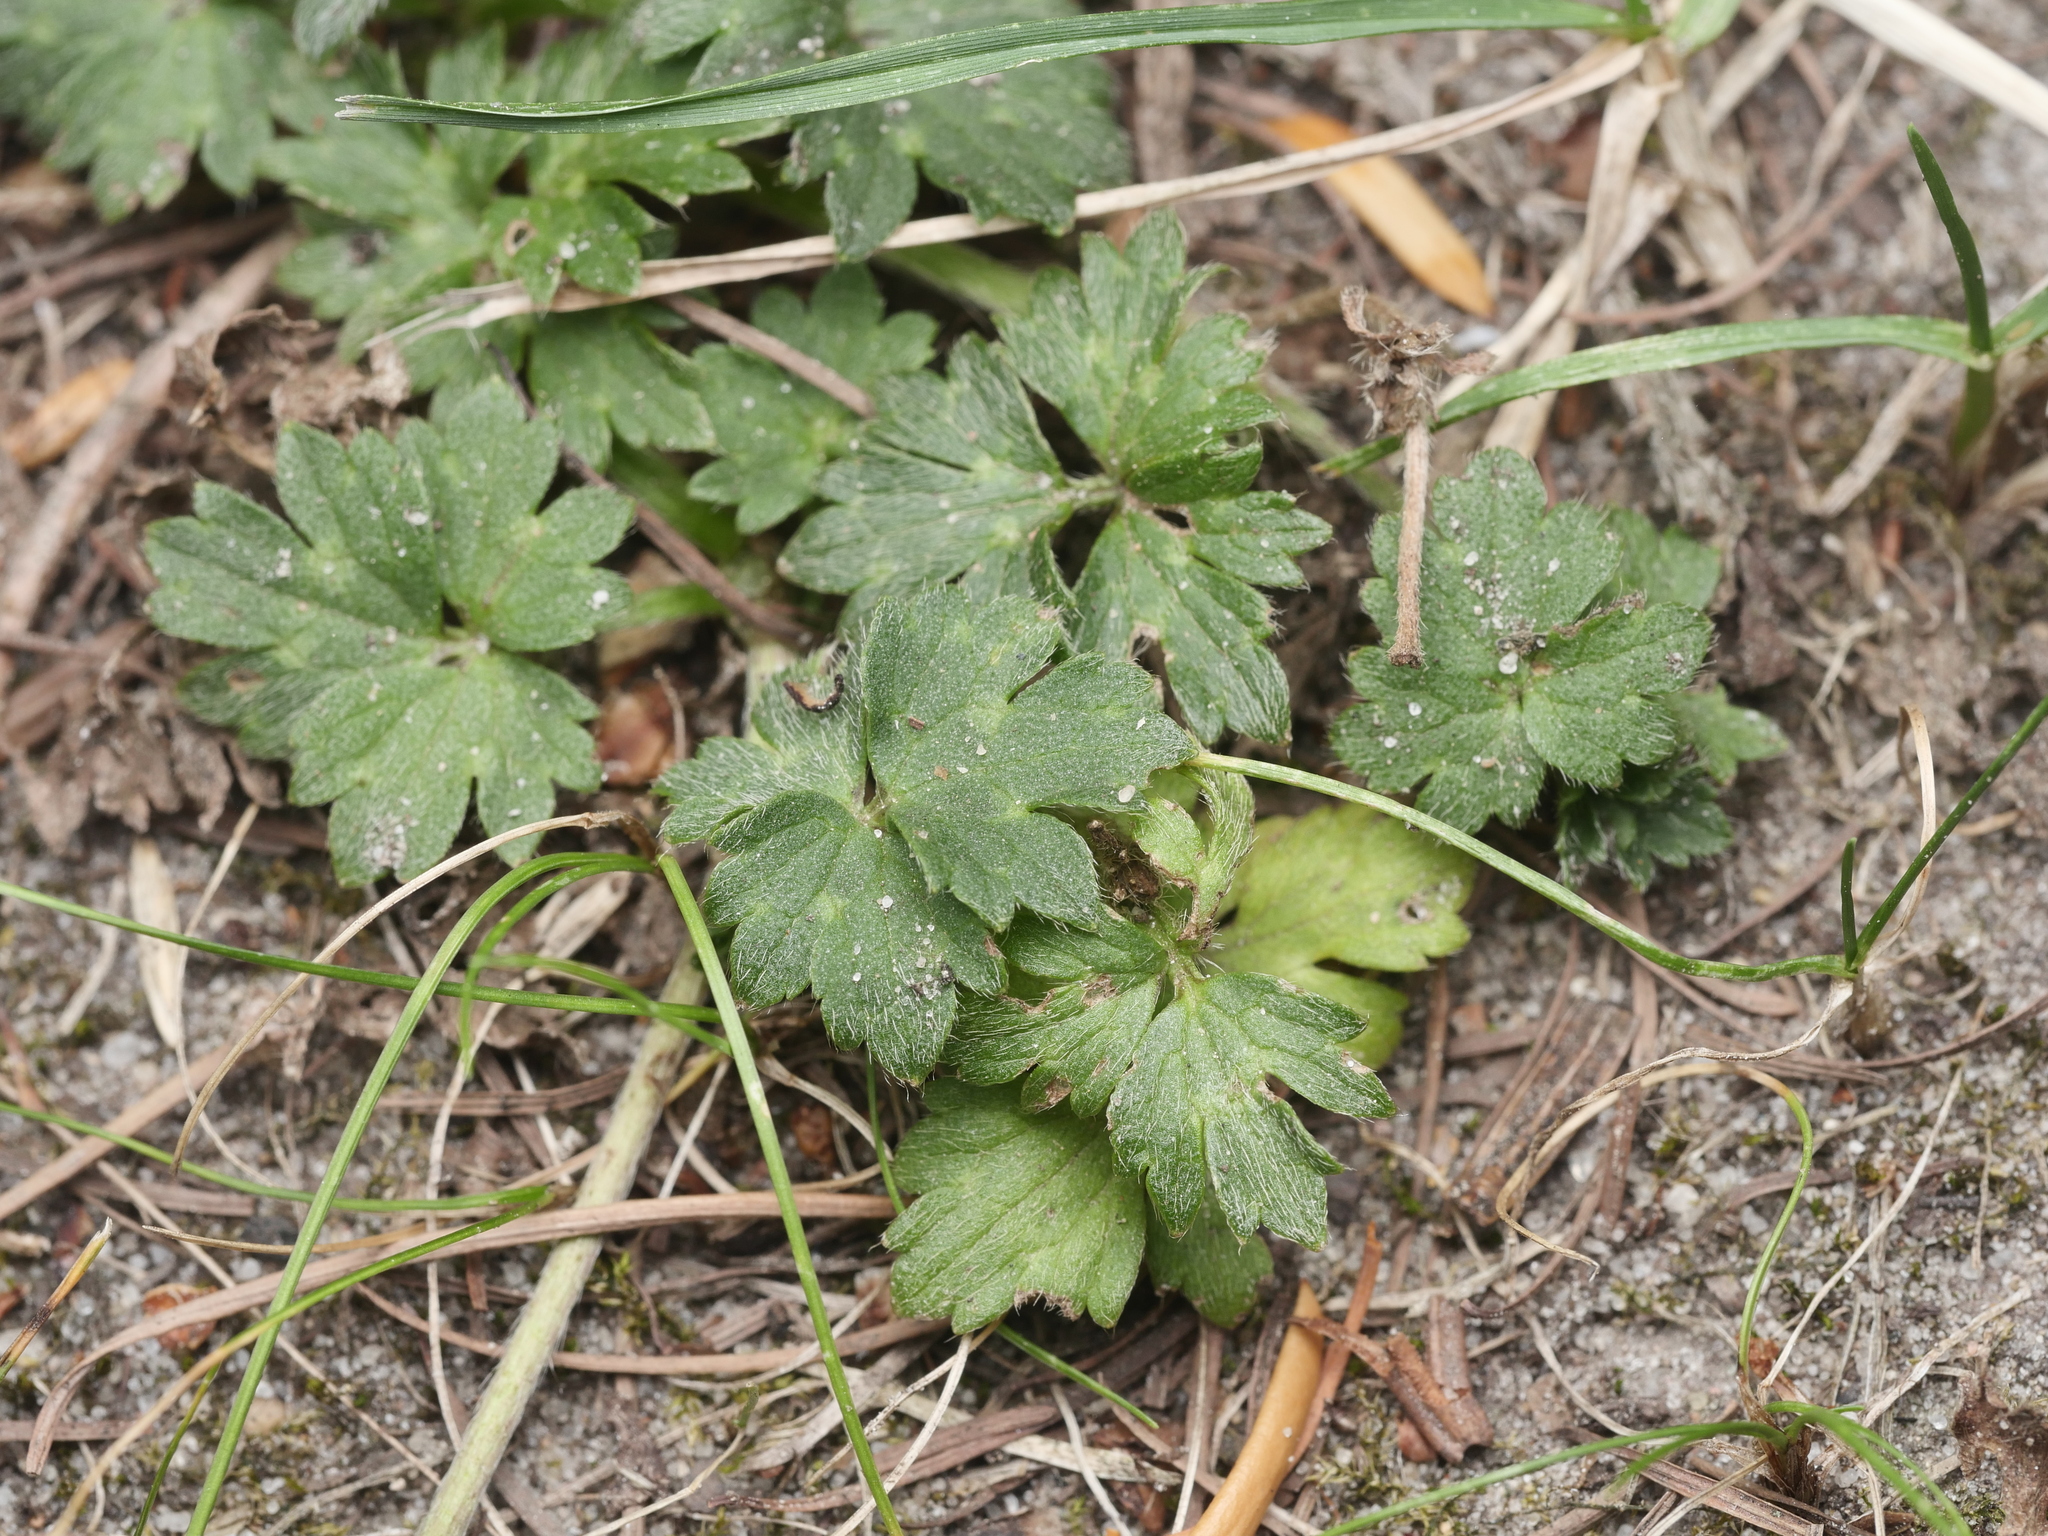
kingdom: Plantae
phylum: Tracheophyta
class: Magnoliopsida
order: Ranunculales
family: Ranunculaceae
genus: Ranunculus
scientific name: Ranunculus repens
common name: Creeping buttercup
